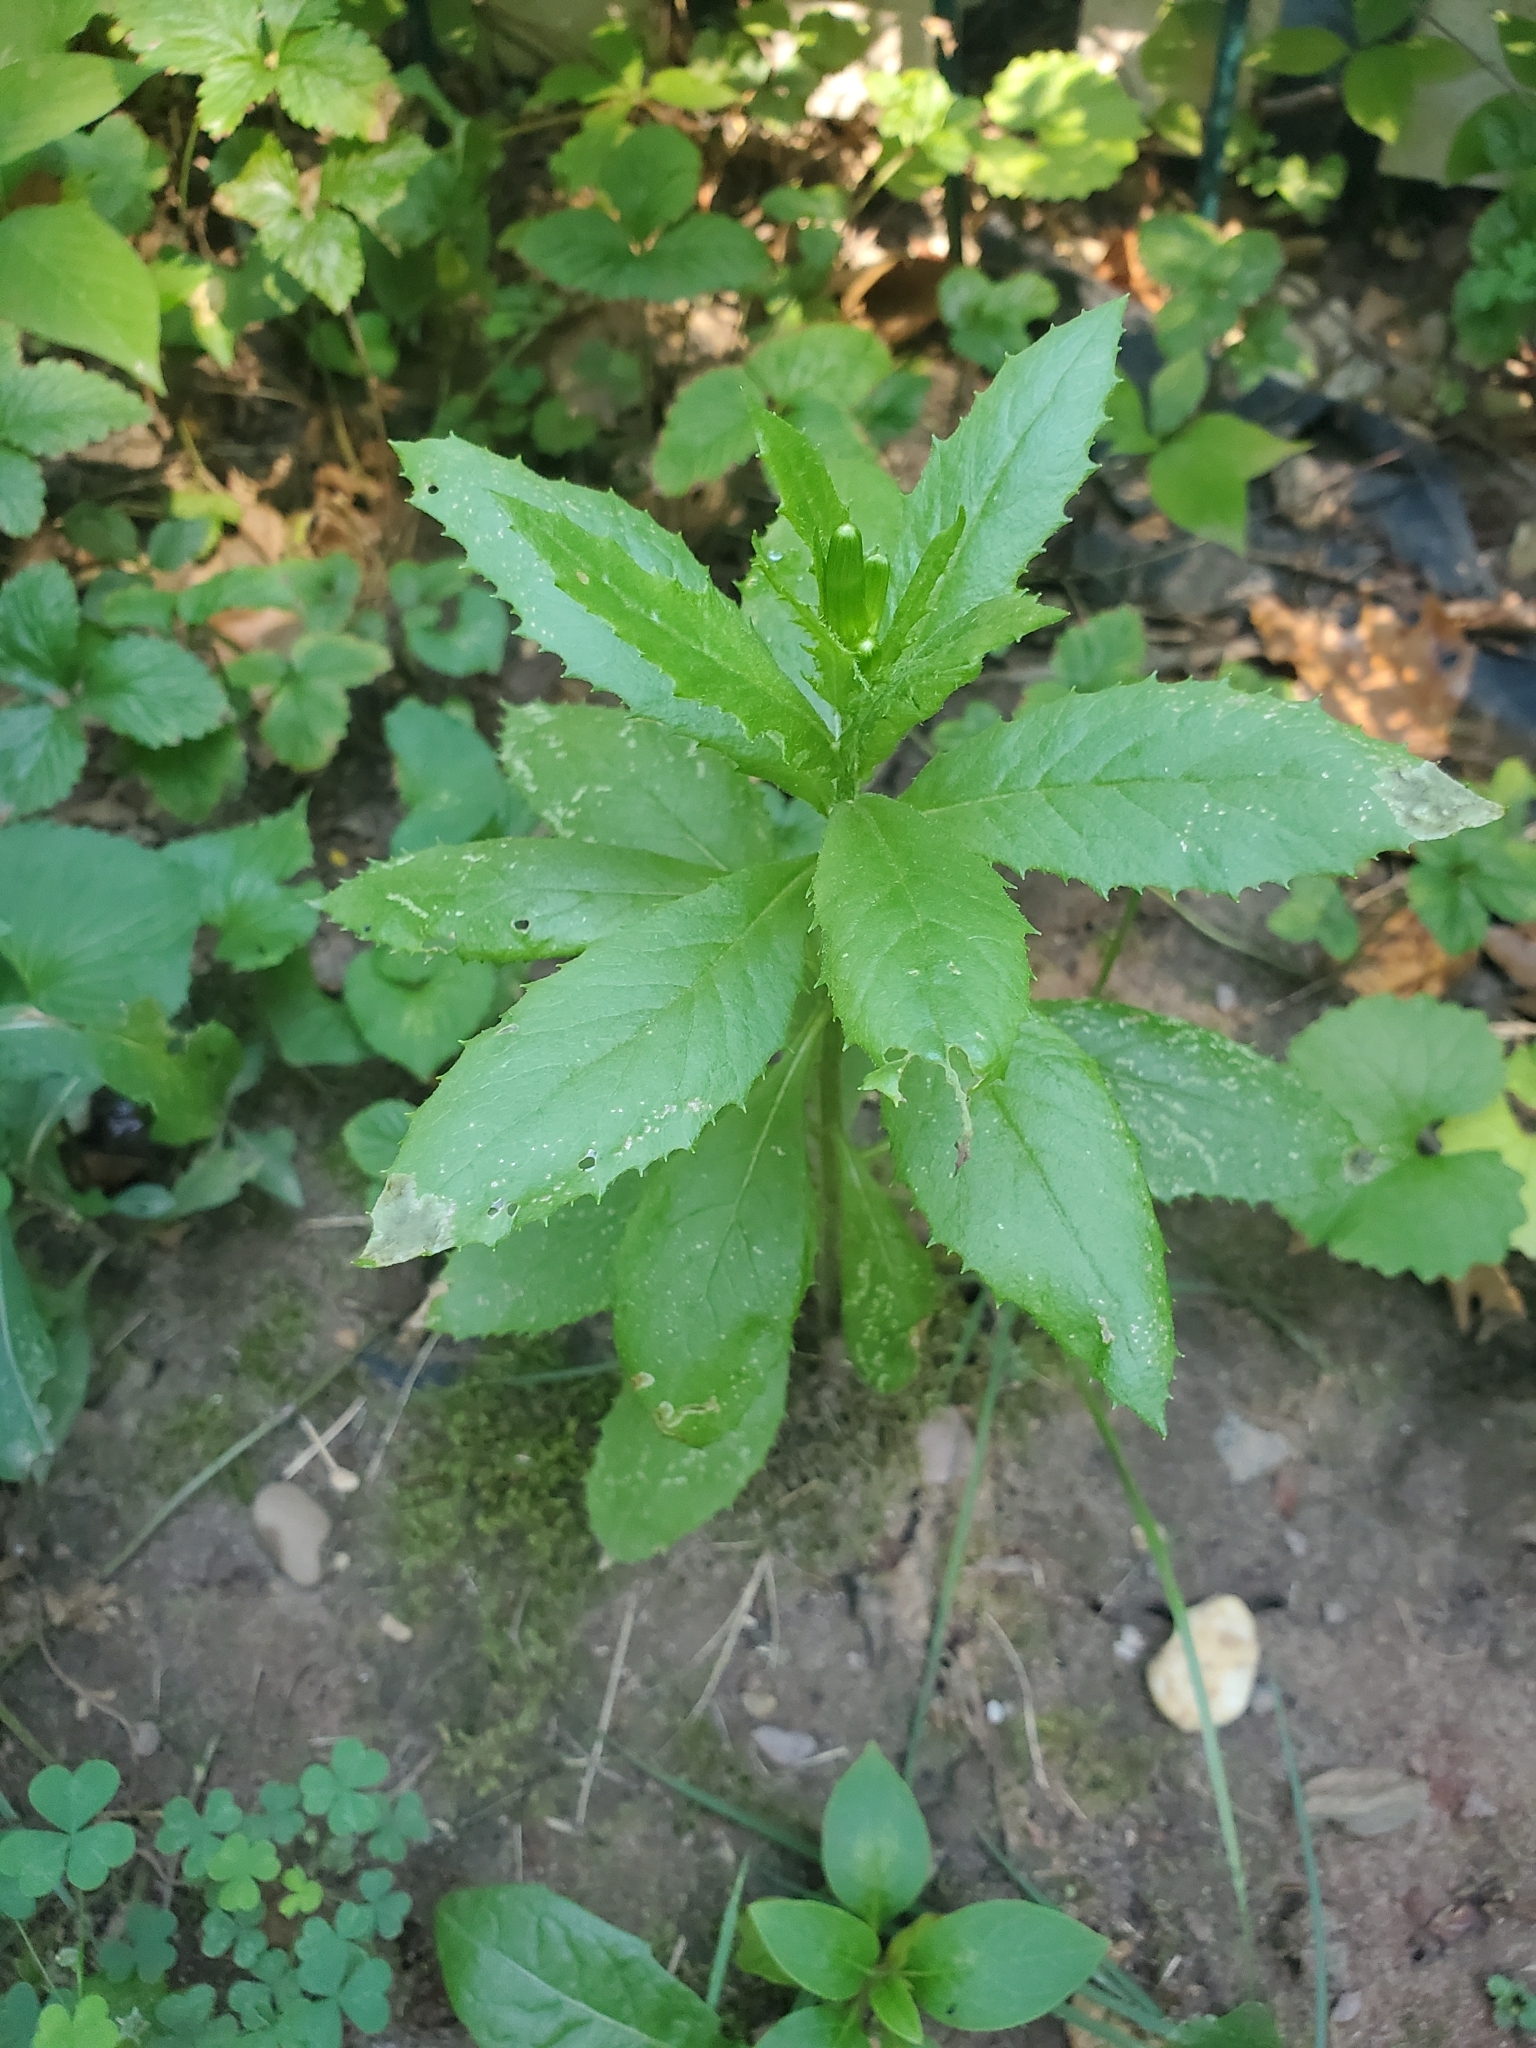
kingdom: Plantae
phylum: Tracheophyta
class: Magnoliopsida
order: Asterales
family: Asteraceae
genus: Erechtites
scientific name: Erechtites hieraciifolius
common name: American burnweed
